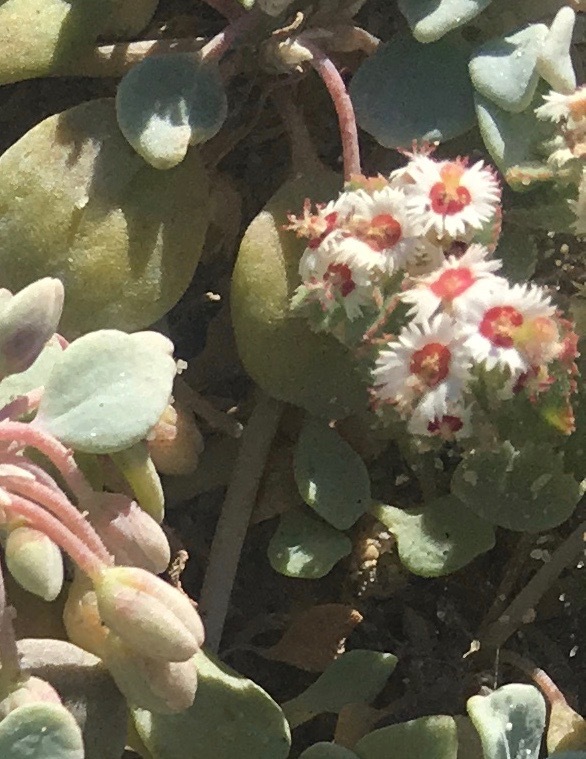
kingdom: Plantae
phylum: Tracheophyta
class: Magnoliopsida
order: Malpighiales
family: Euphorbiaceae
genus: Euphorbia
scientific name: Euphorbia dentosa
